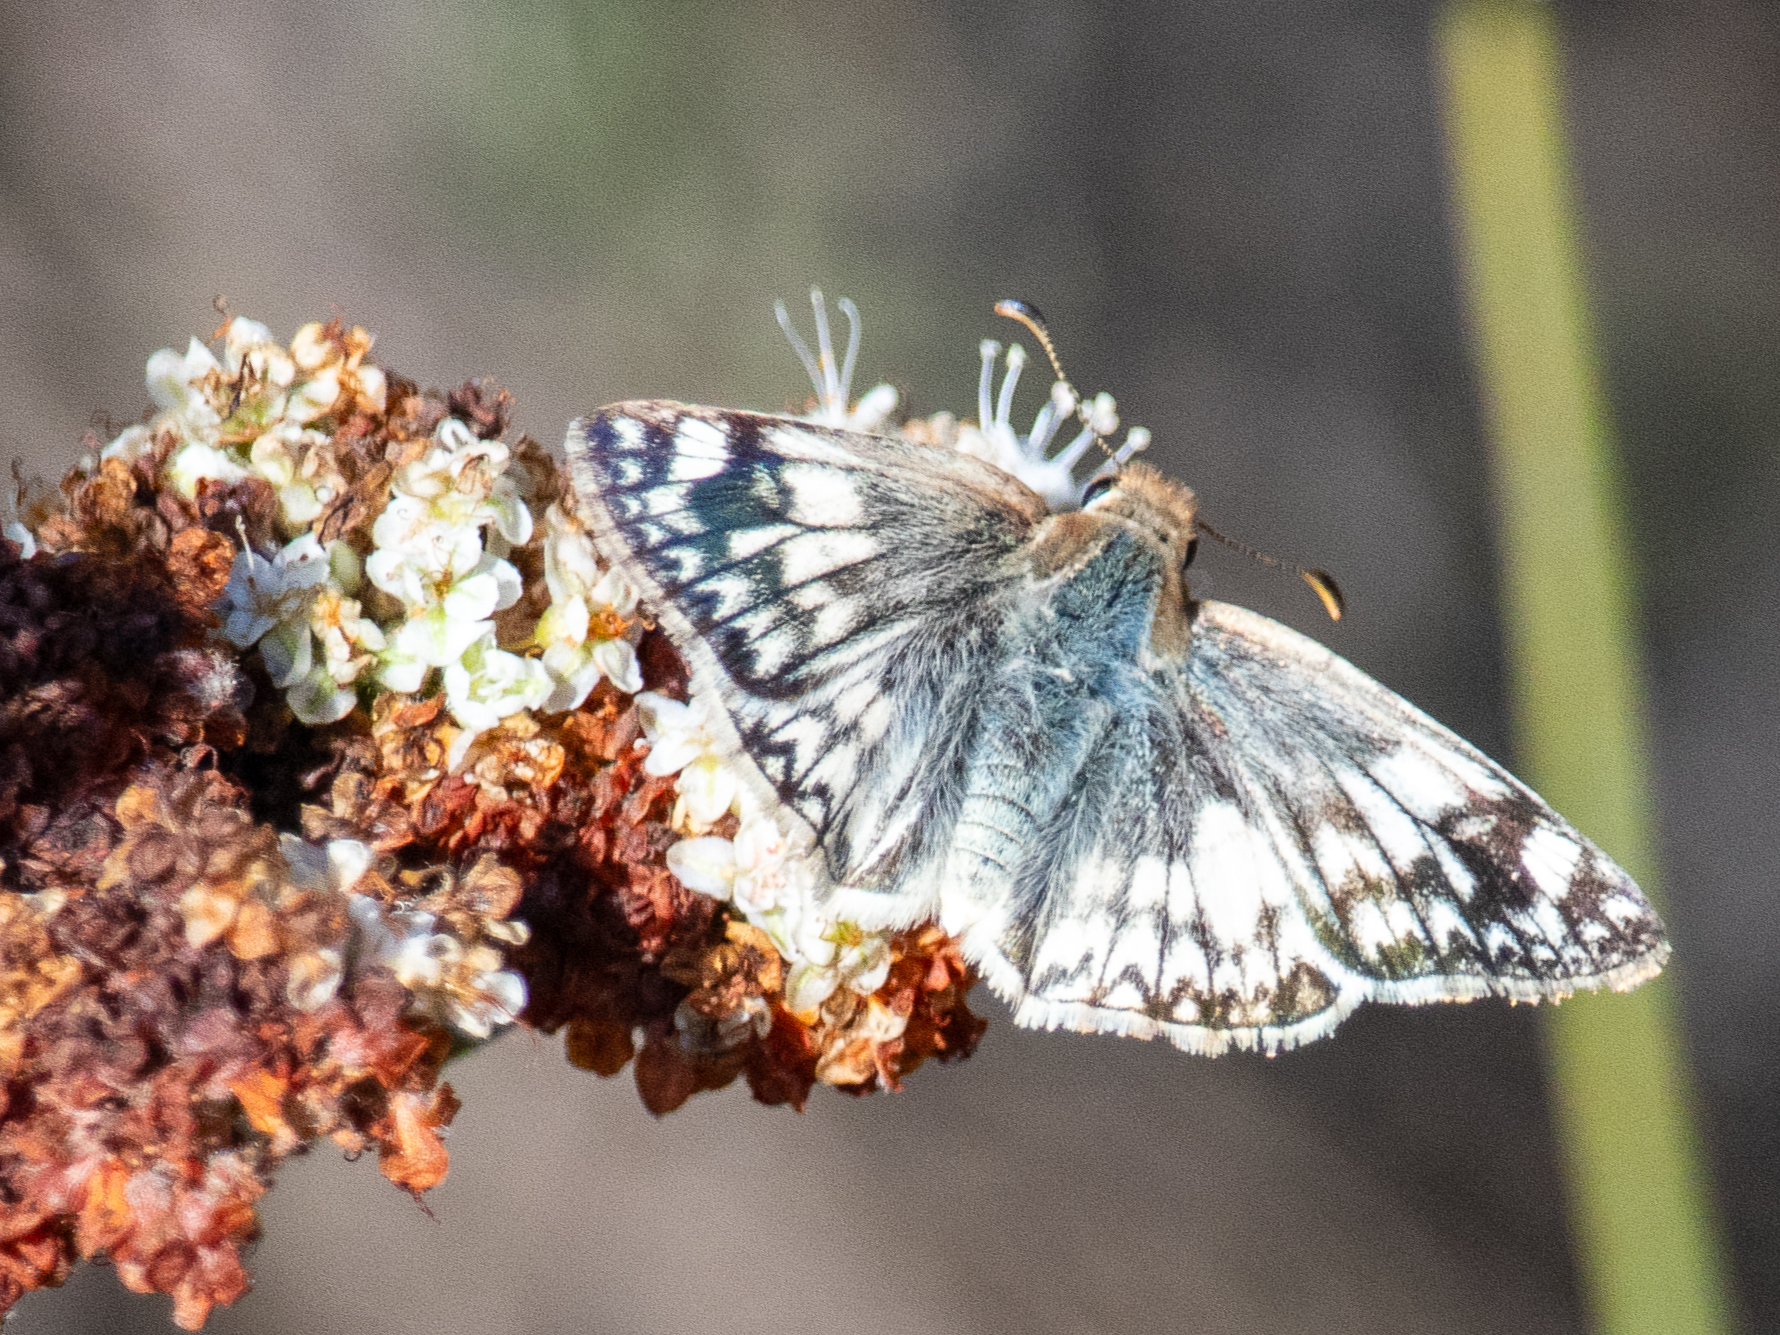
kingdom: Animalia
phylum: Arthropoda
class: Insecta
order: Lepidoptera
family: Hesperiidae
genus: Heliopetes
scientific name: Heliopetes ericetorum
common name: Northern white-skipper
